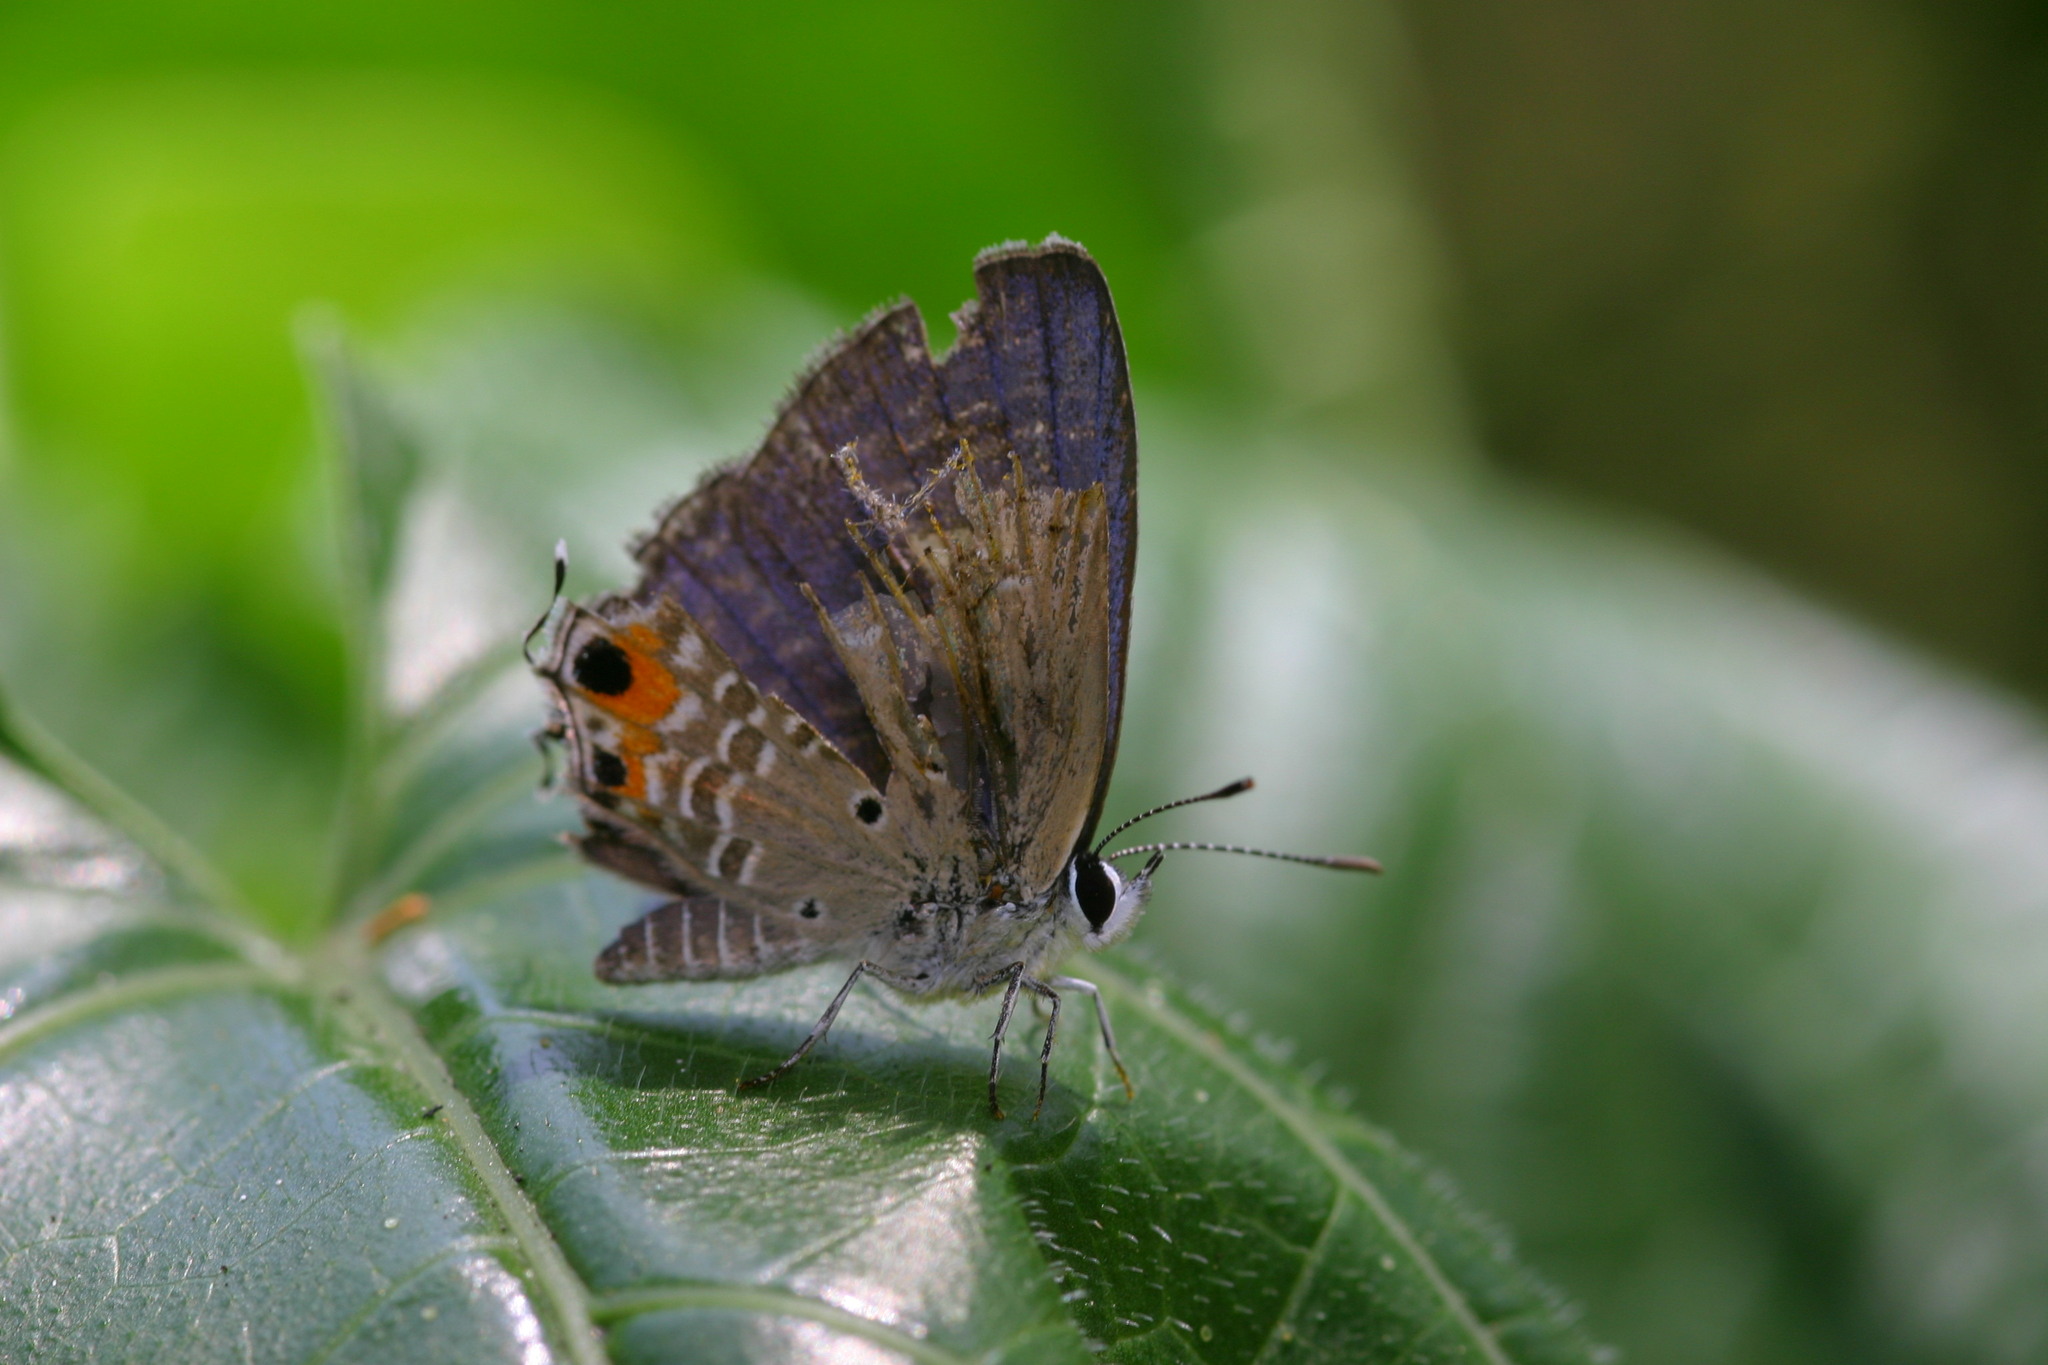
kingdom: Animalia
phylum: Arthropoda
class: Insecta
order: Lepidoptera
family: Lycaenidae
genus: Luthrodes
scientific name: Luthrodes pandava
